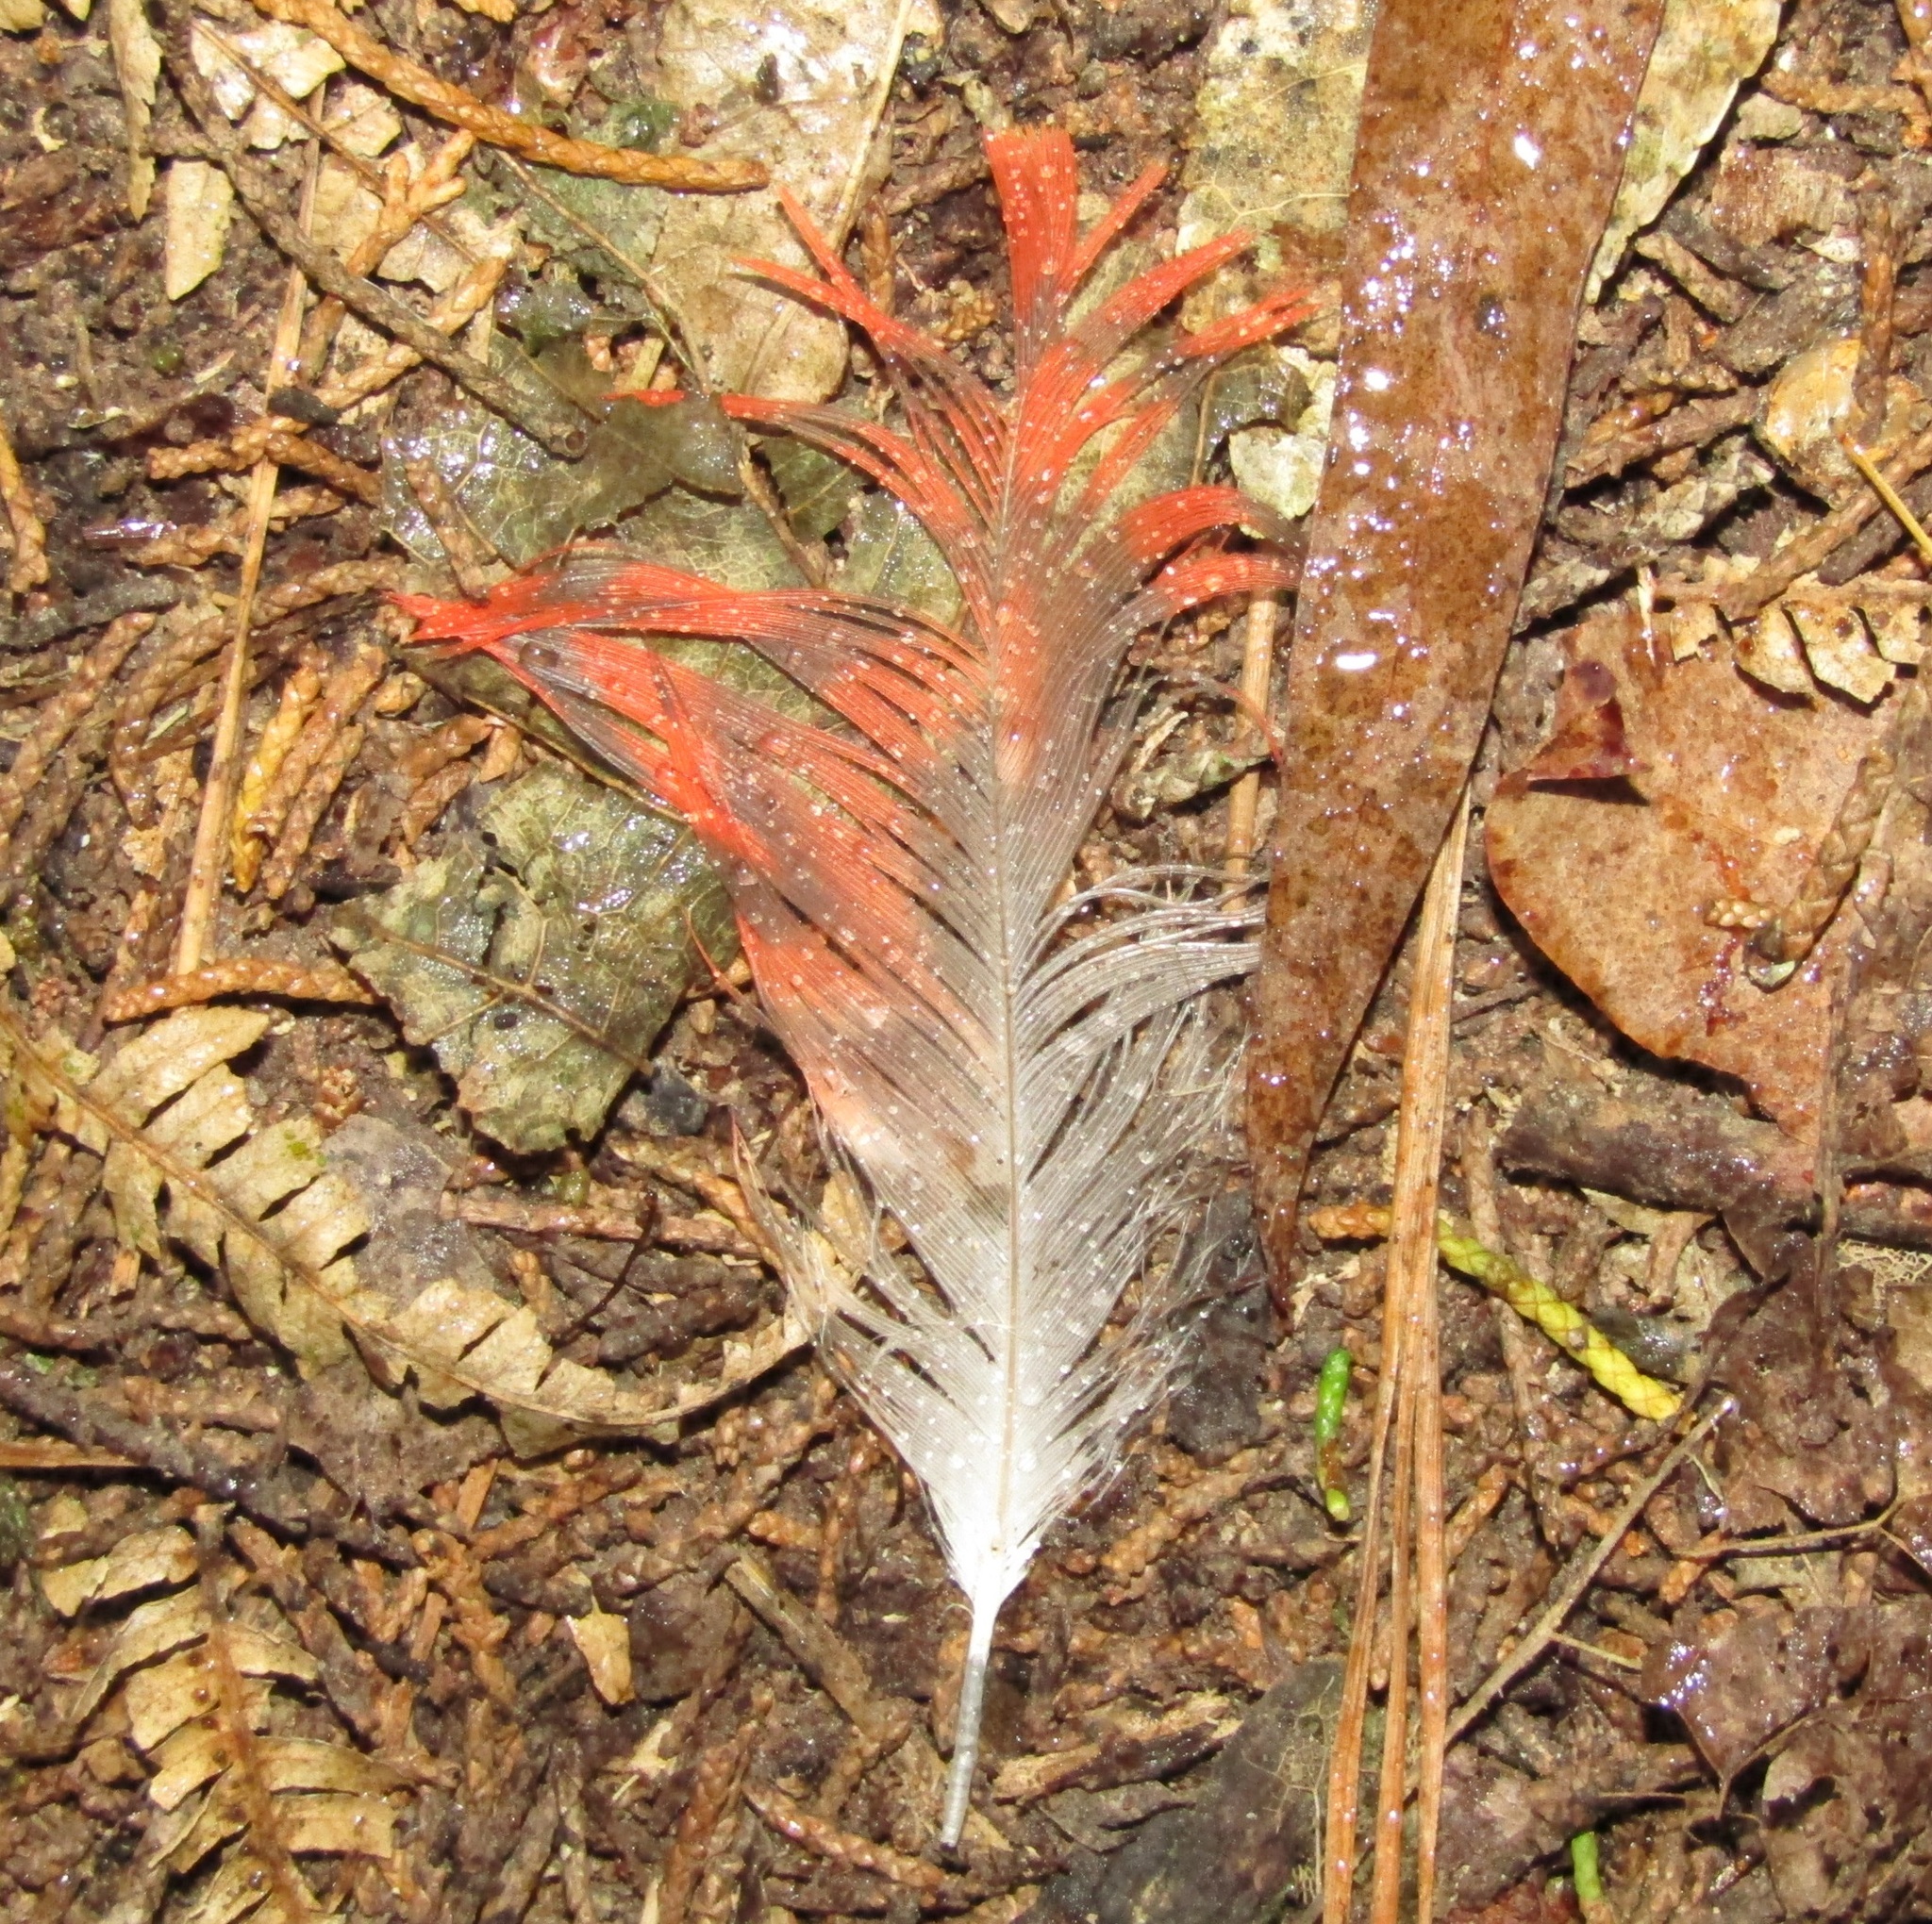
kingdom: Animalia
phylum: Chordata
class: Aves
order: Psittaciformes
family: Psittacidae
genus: Nestor
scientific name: Nestor meridionalis
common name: New zealand kaka
